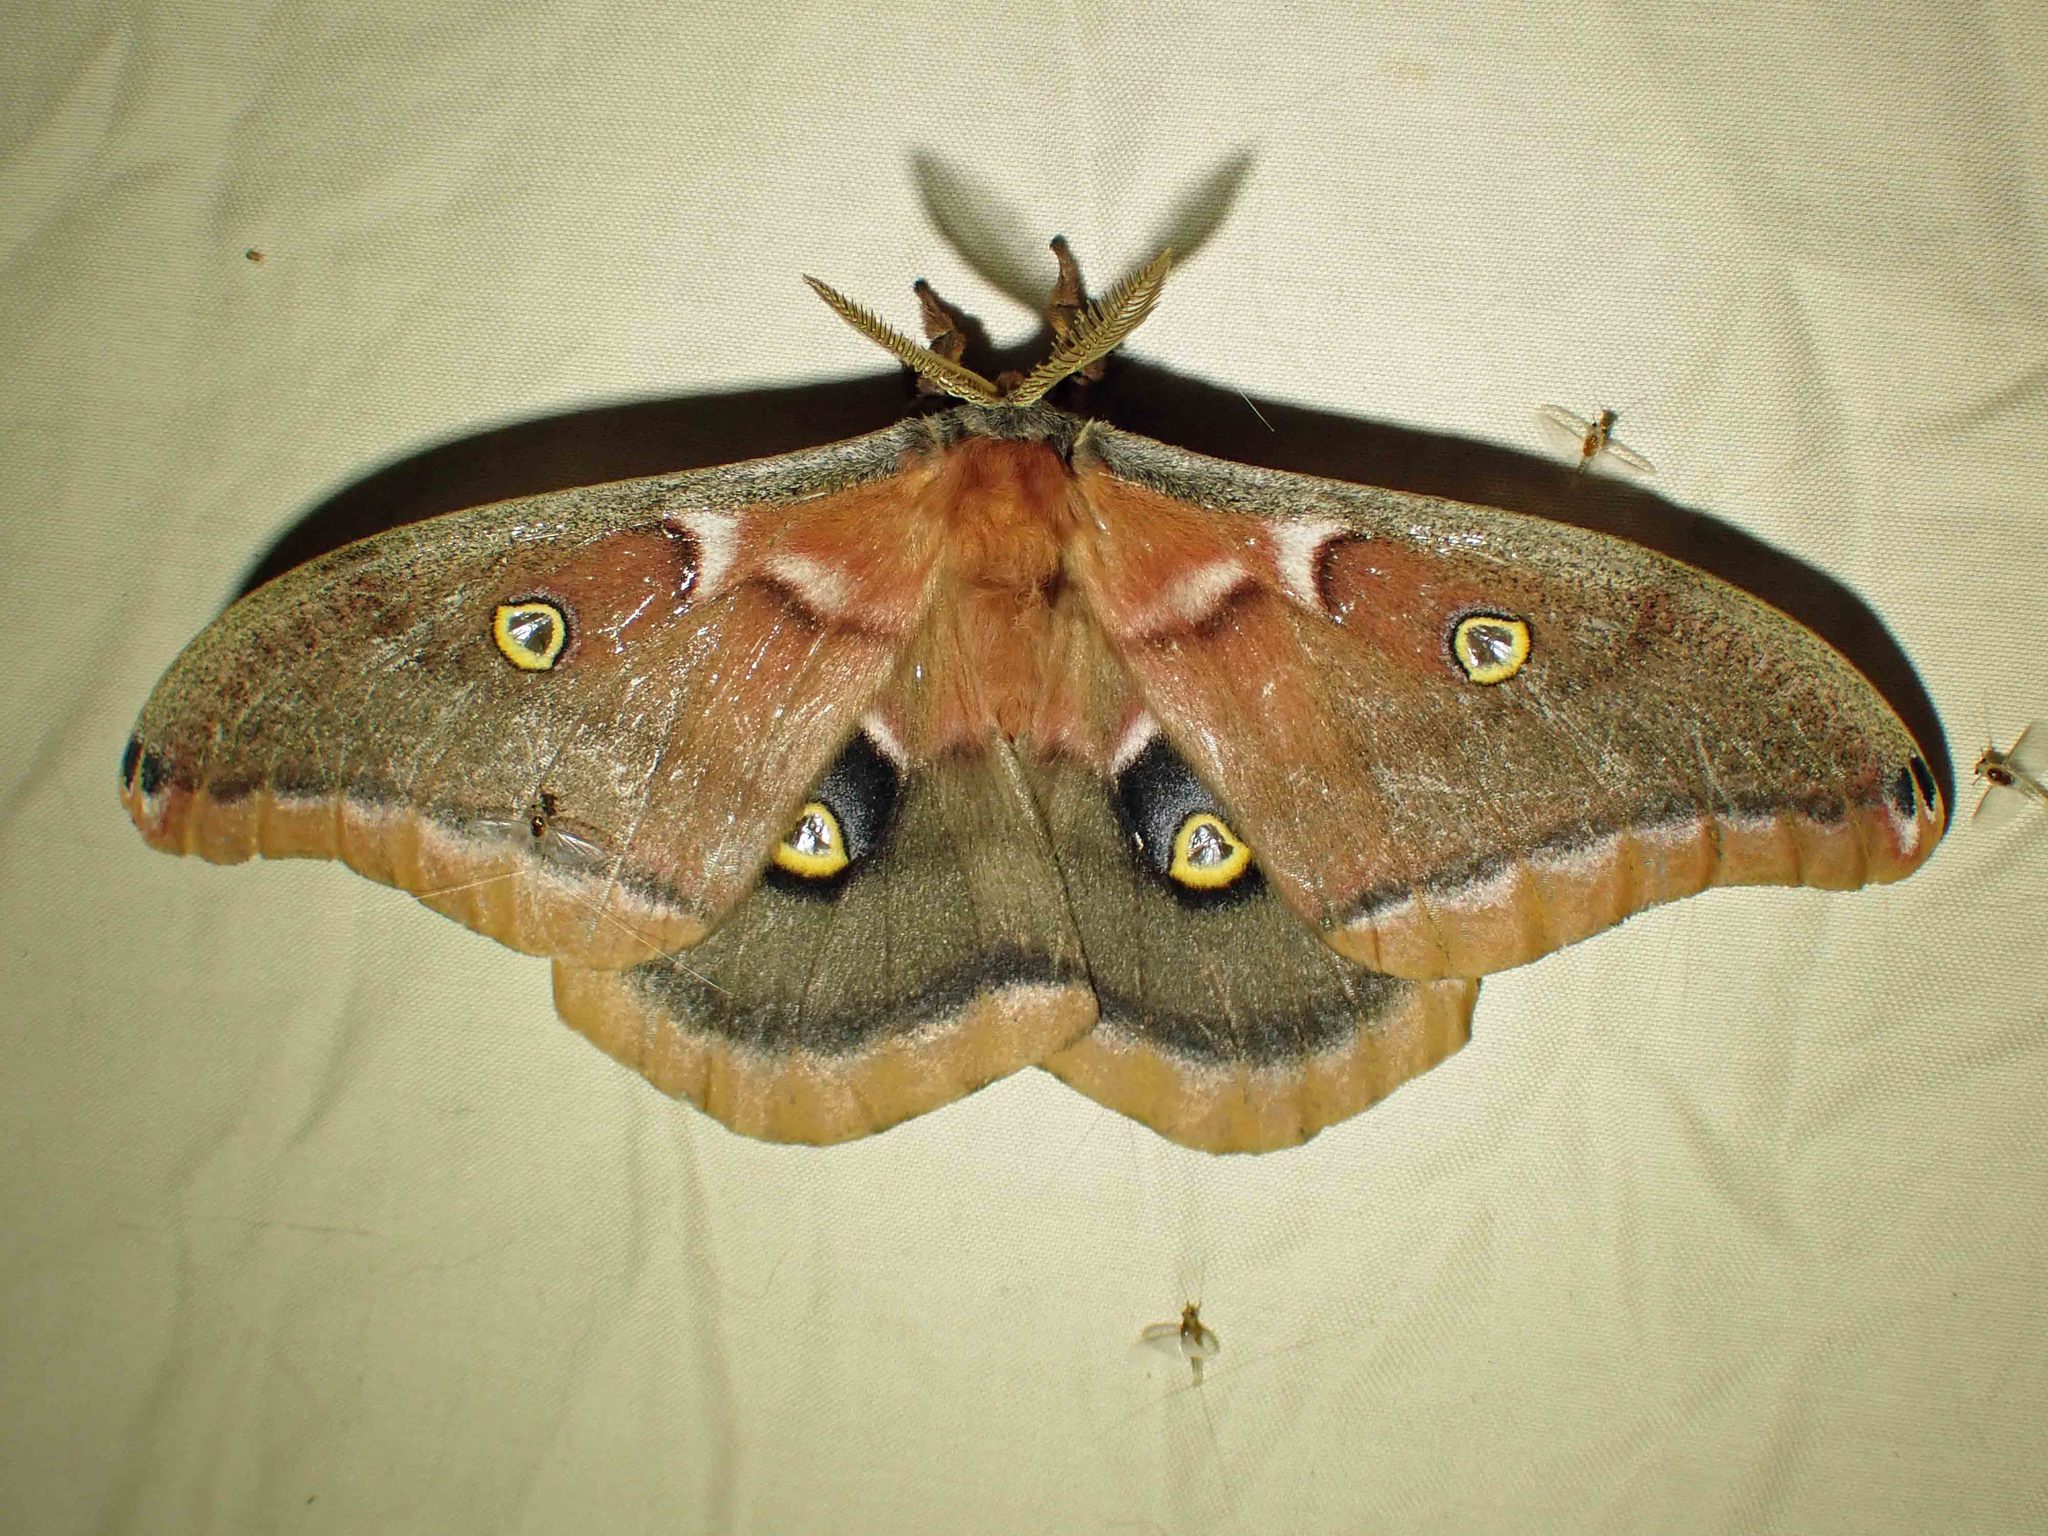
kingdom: Animalia
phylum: Arthropoda
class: Insecta
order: Lepidoptera
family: Saturniidae
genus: Antheraea
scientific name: Antheraea polyphemus
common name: Polyphemus moth
